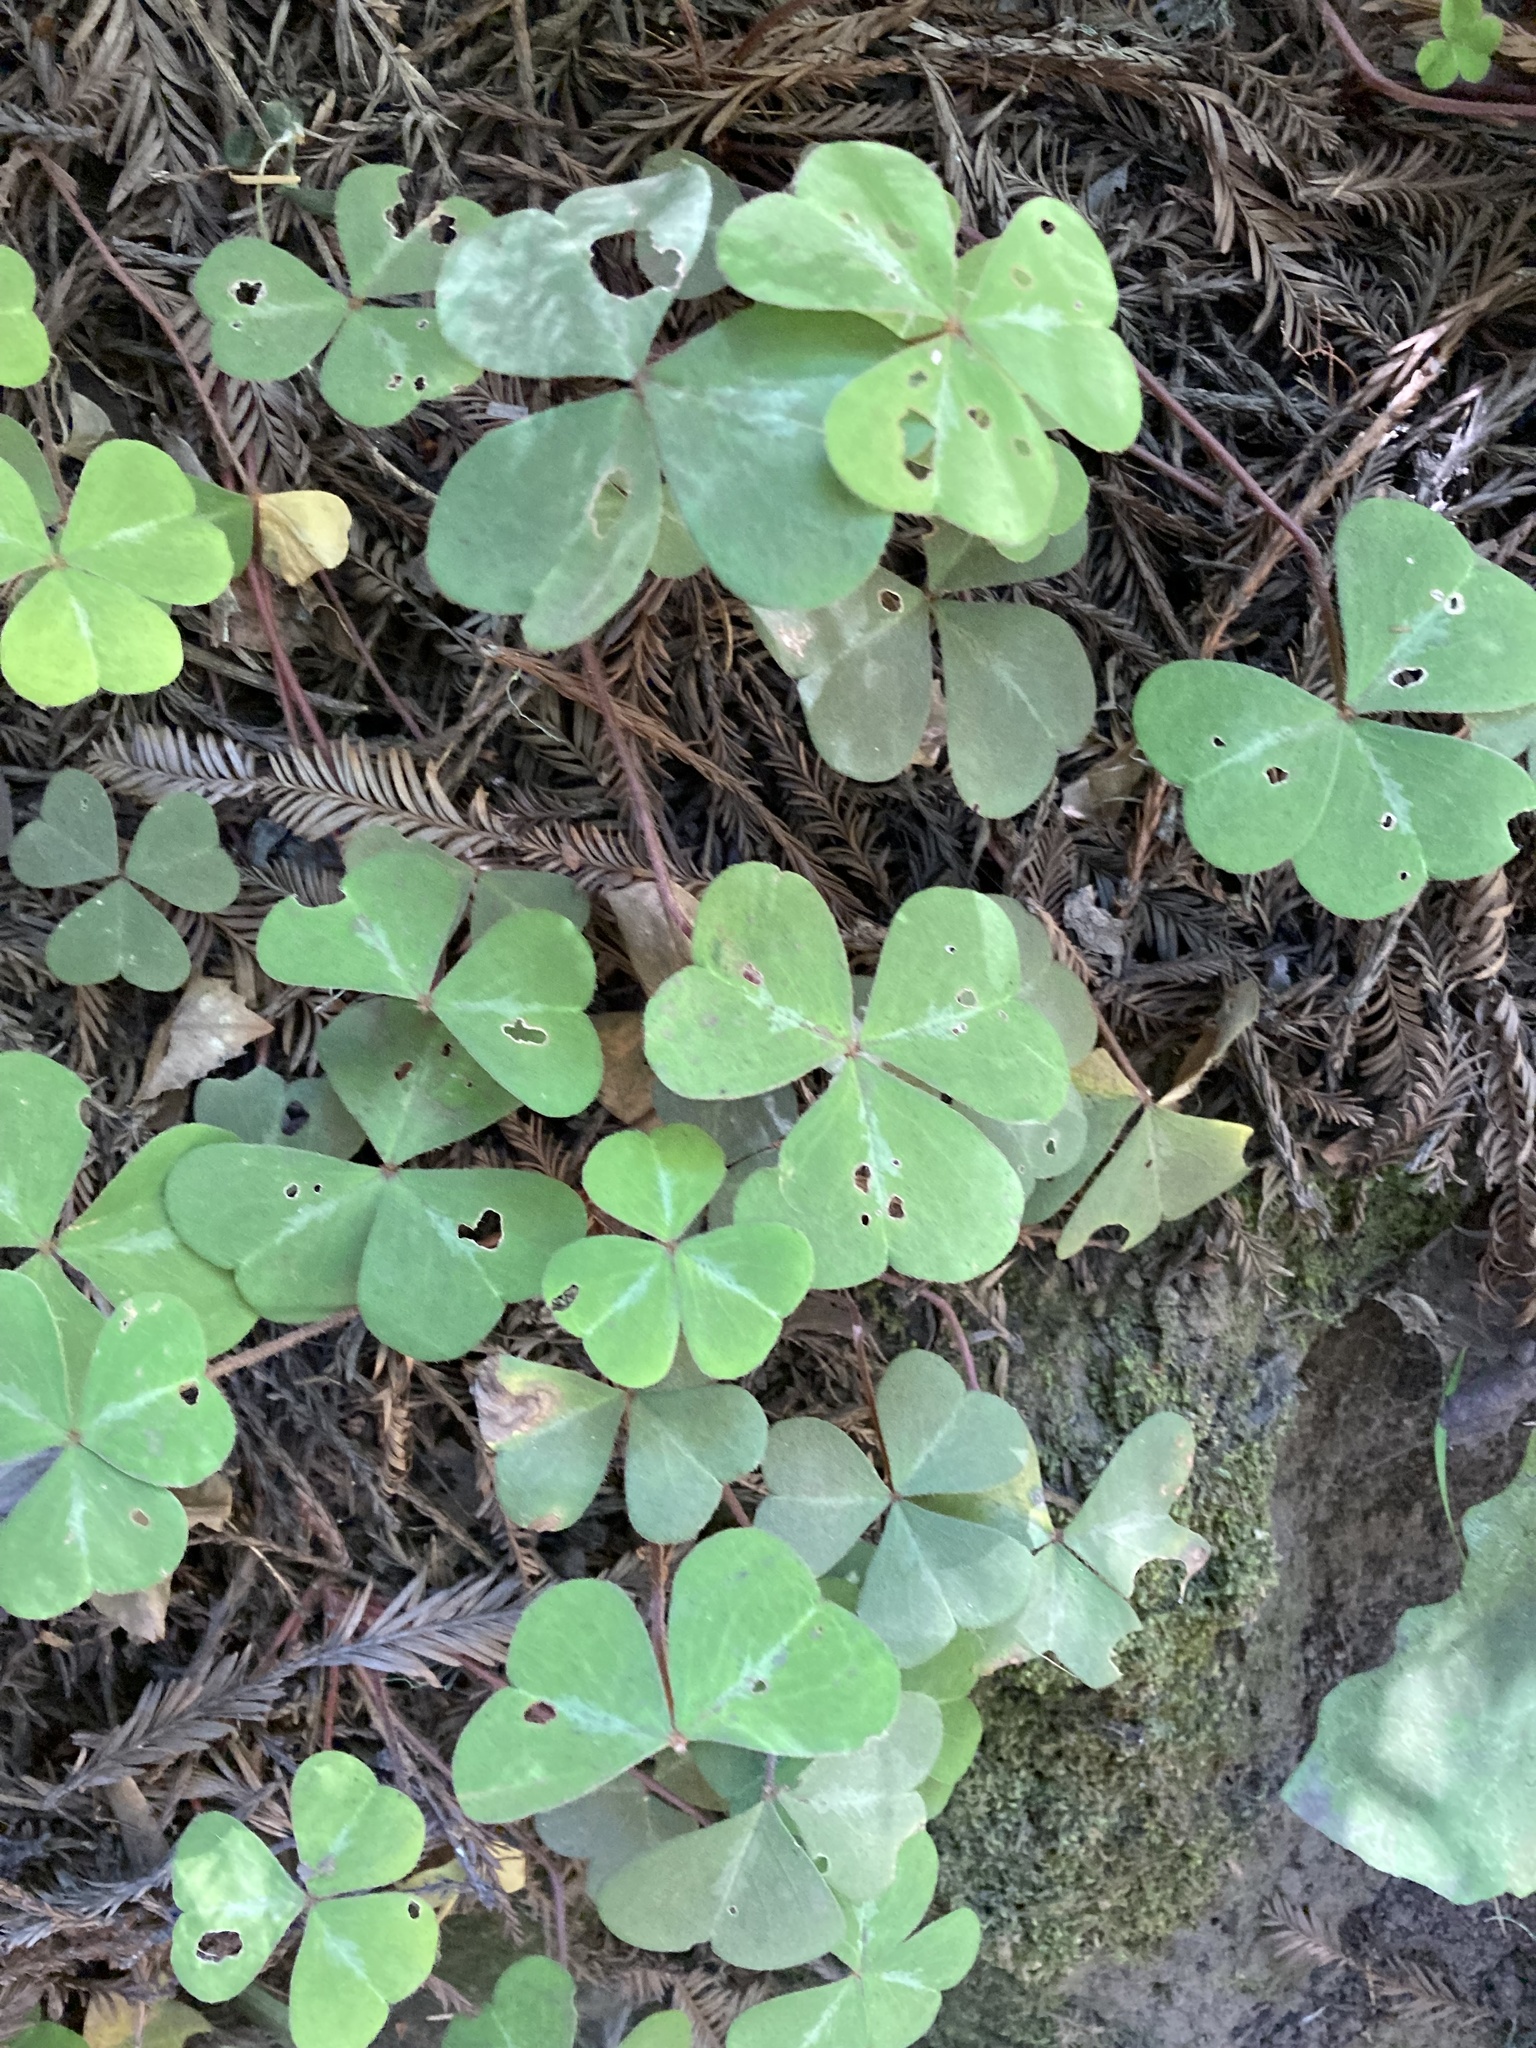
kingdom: Plantae
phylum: Tracheophyta
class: Magnoliopsida
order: Oxalidales
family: Oxalidaceae
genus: Oxalis
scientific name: Oxalis oregana
